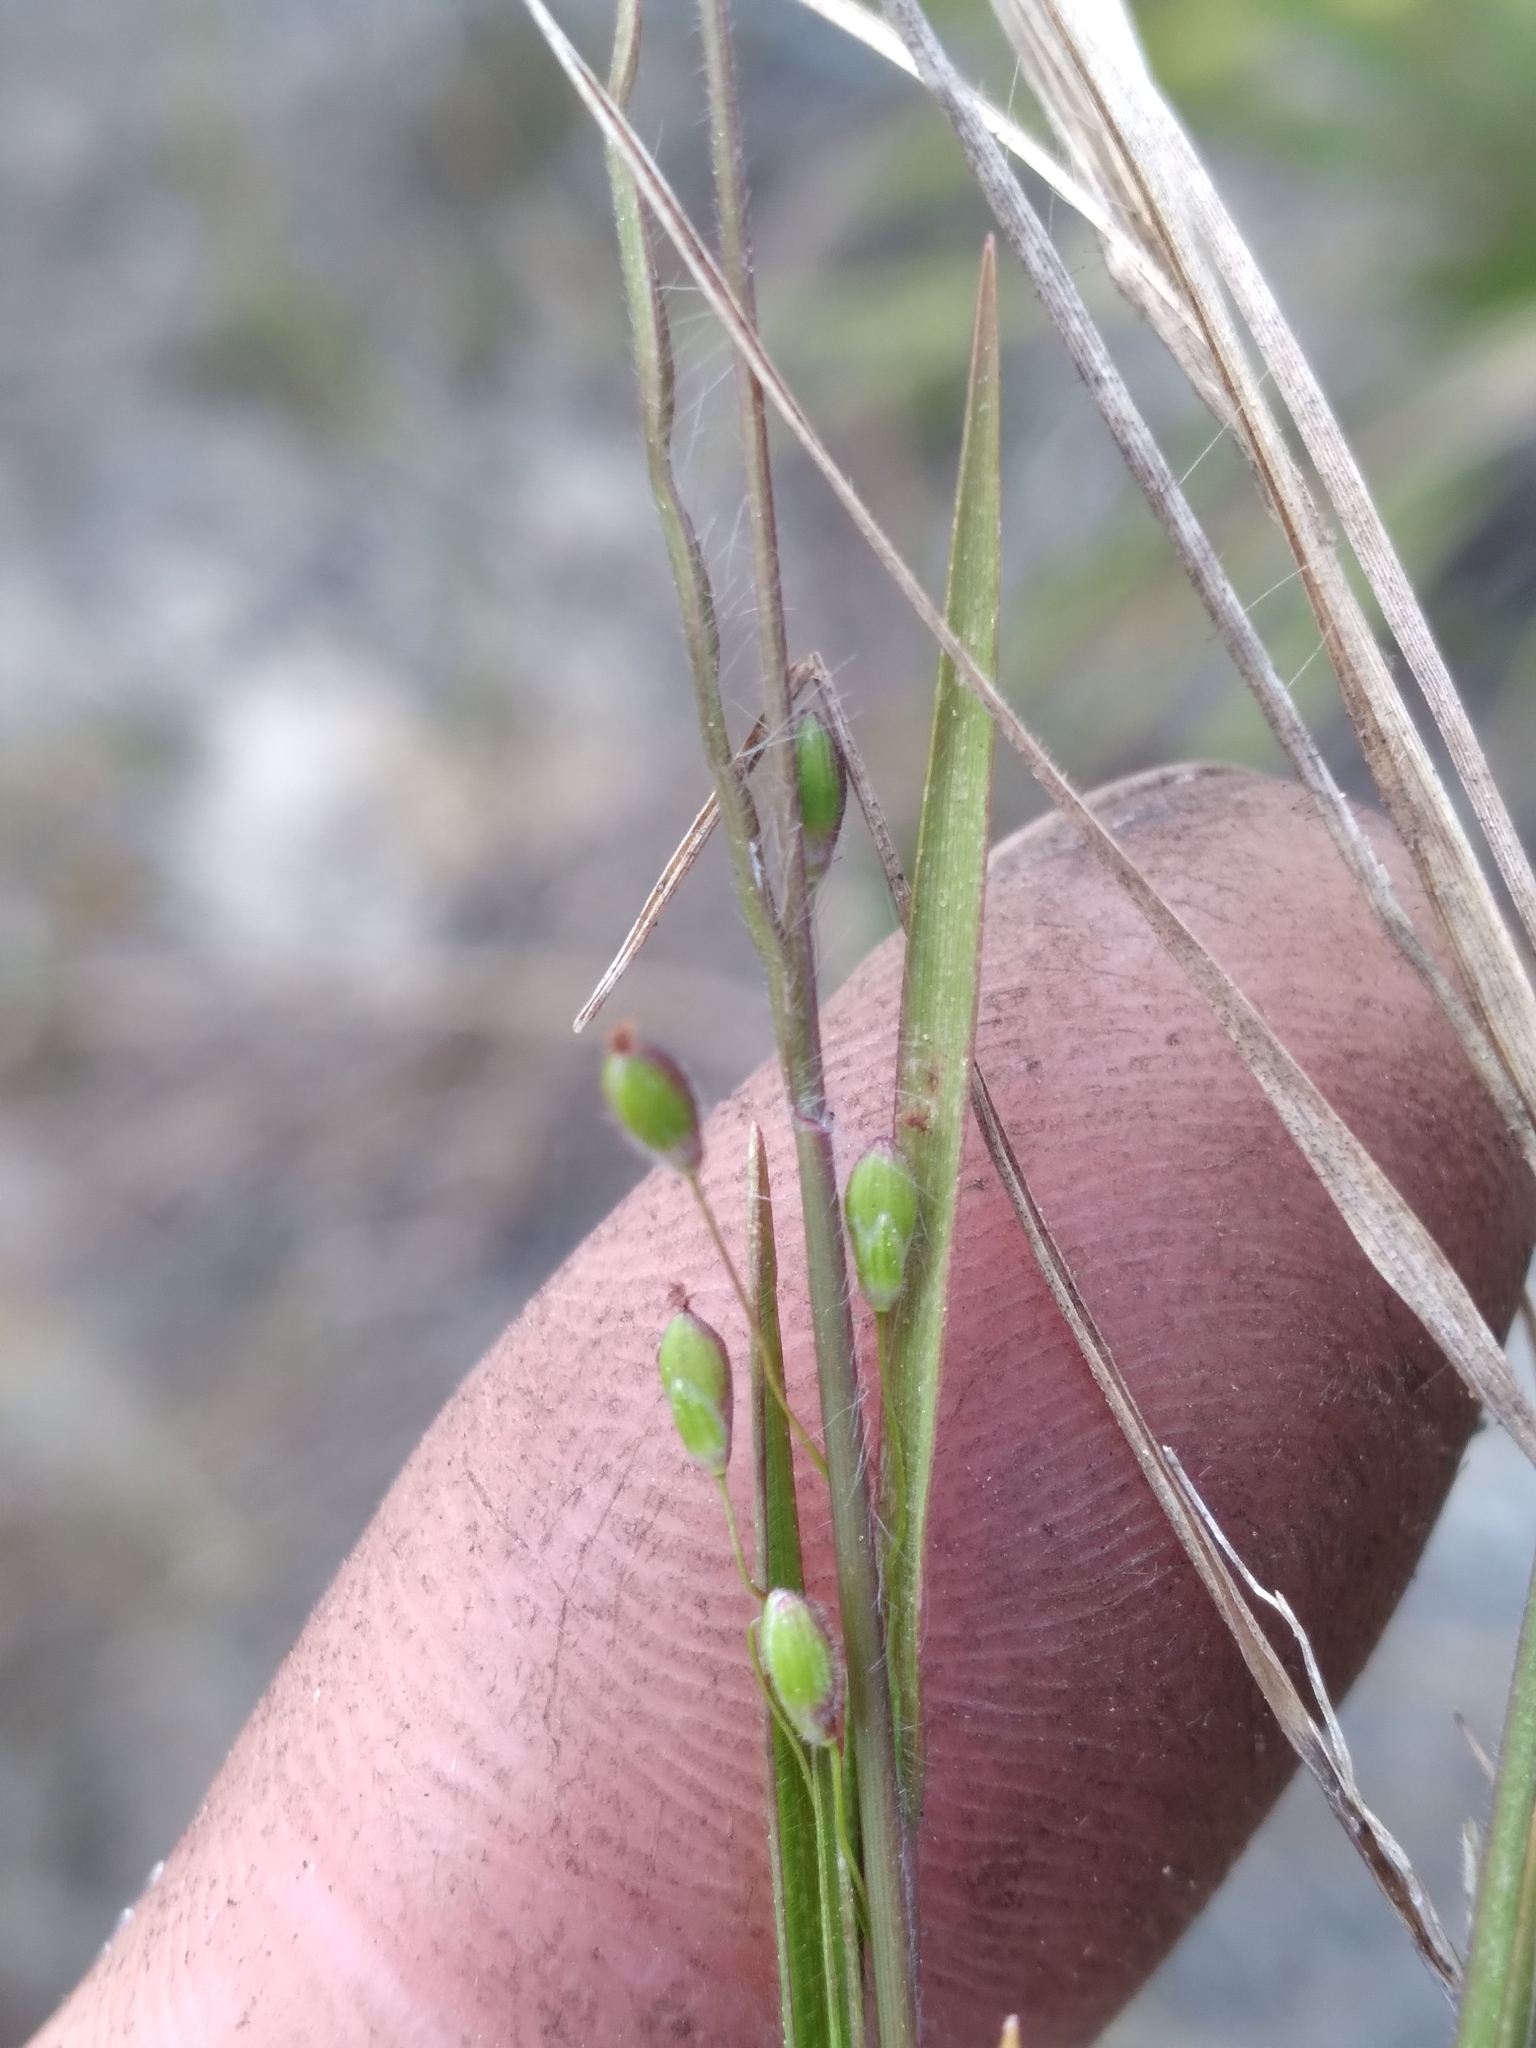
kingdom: Plantae
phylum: Tracheophyta
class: Liliopsida
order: Poales
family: Poaceae
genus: Dichanthelium
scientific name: Dichanthelium malacon
